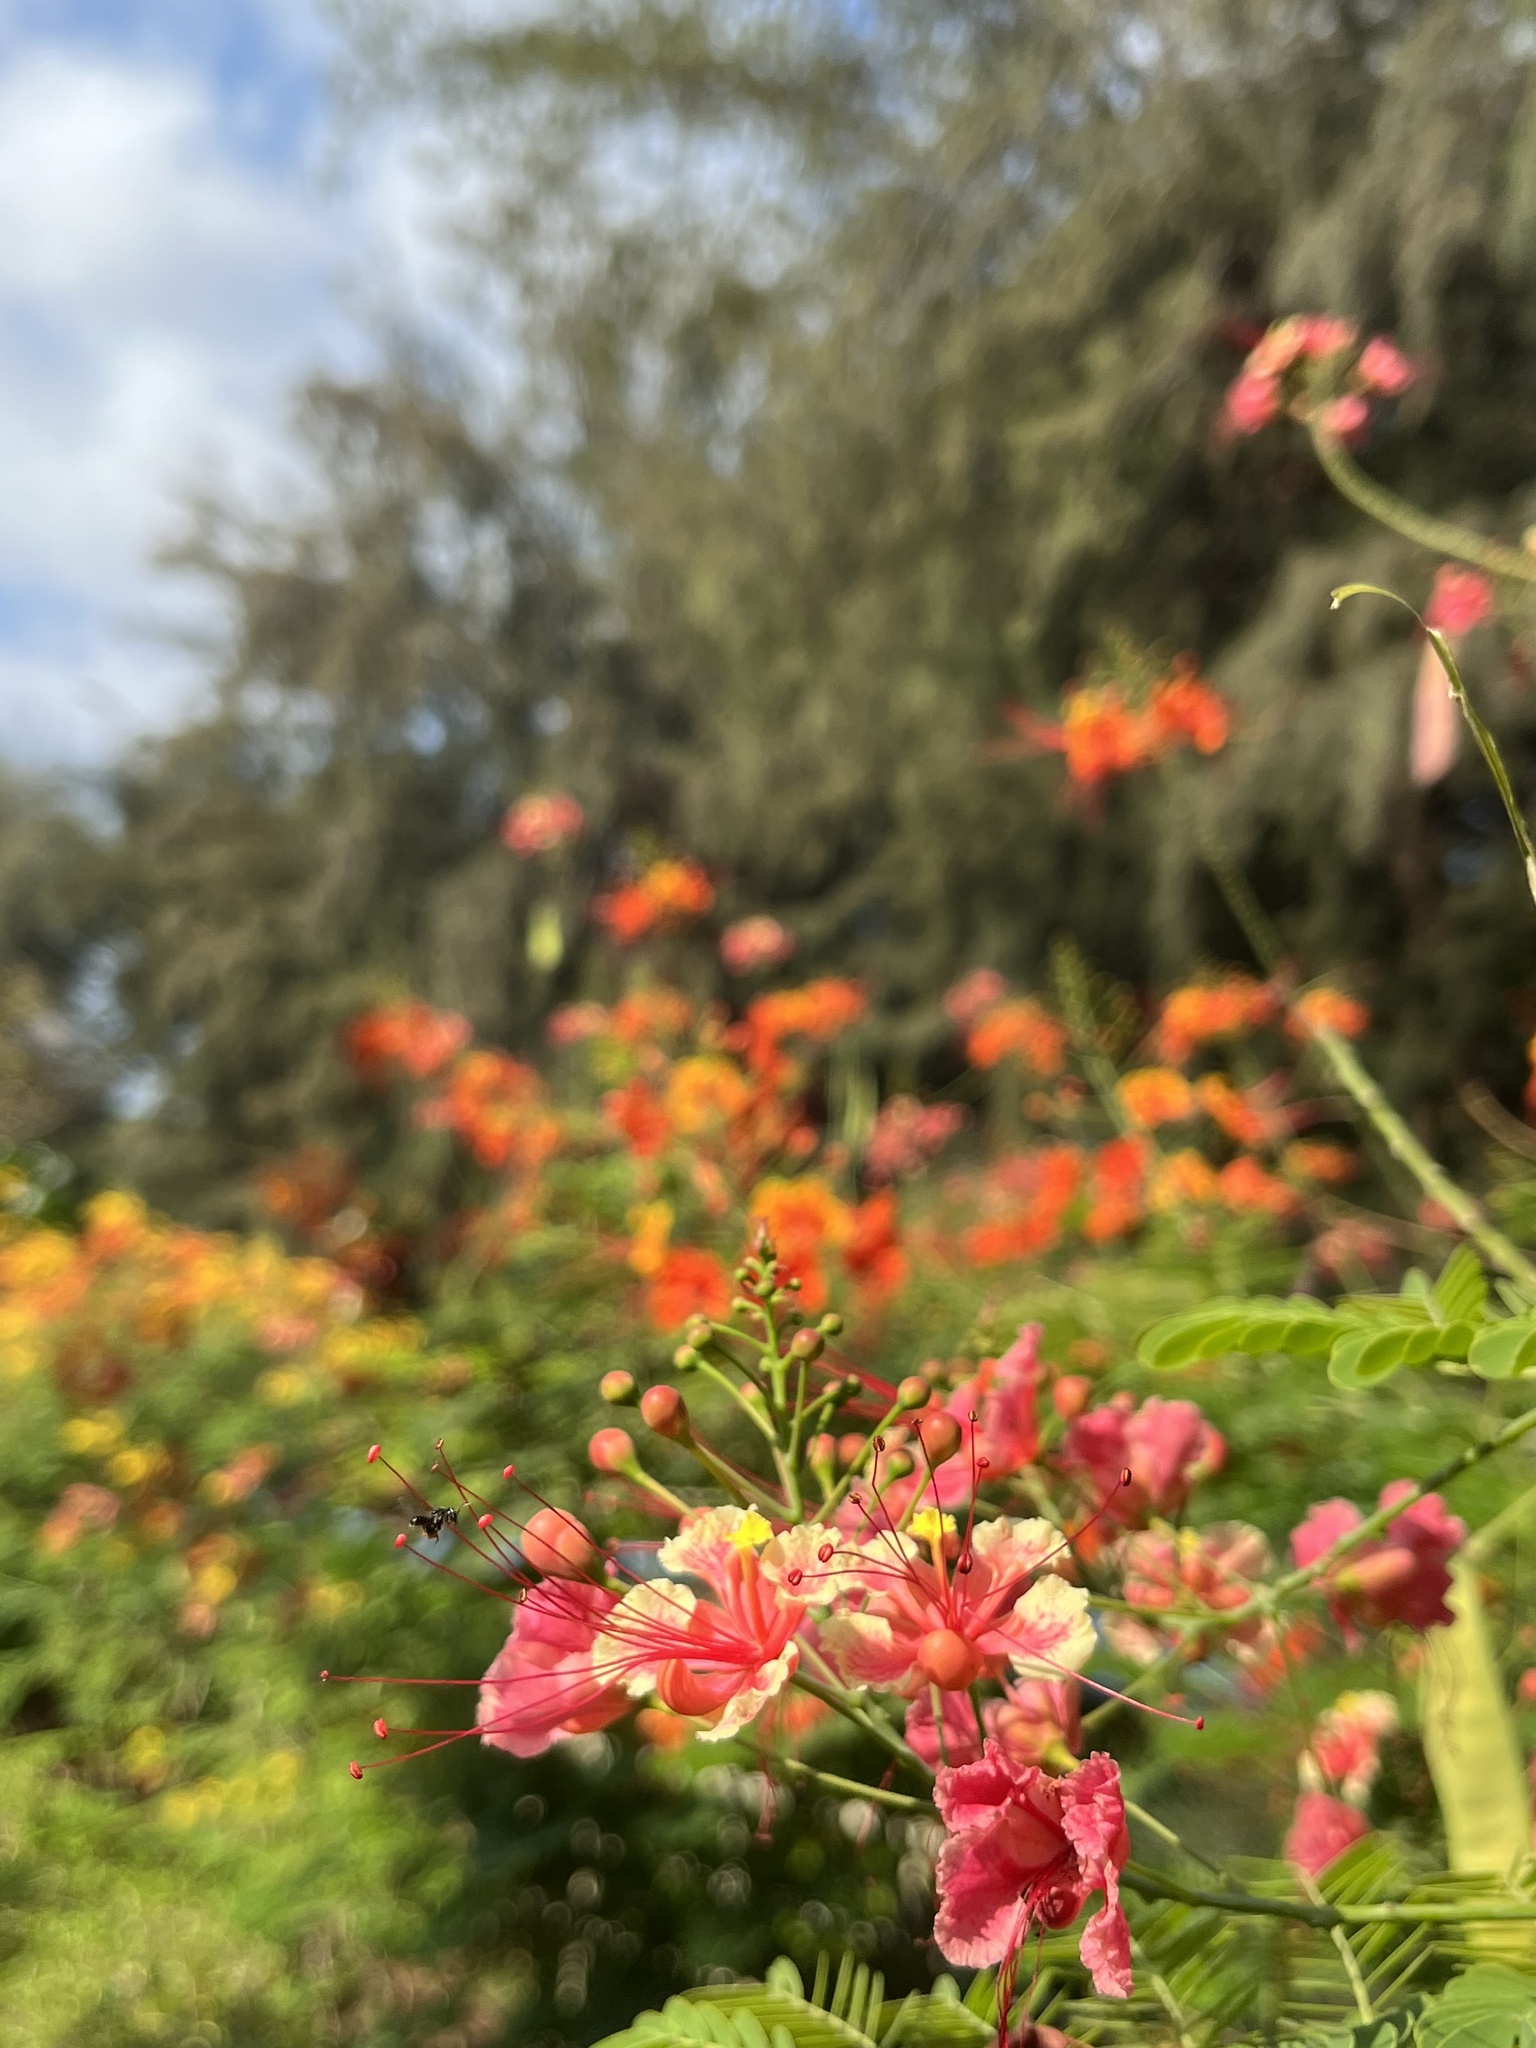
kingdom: Plantae
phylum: Tracheophyta
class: Magnoliopsida
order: Fabales
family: Fabaceae
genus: Delonix
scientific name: Delonix regia
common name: Royal poinciana
